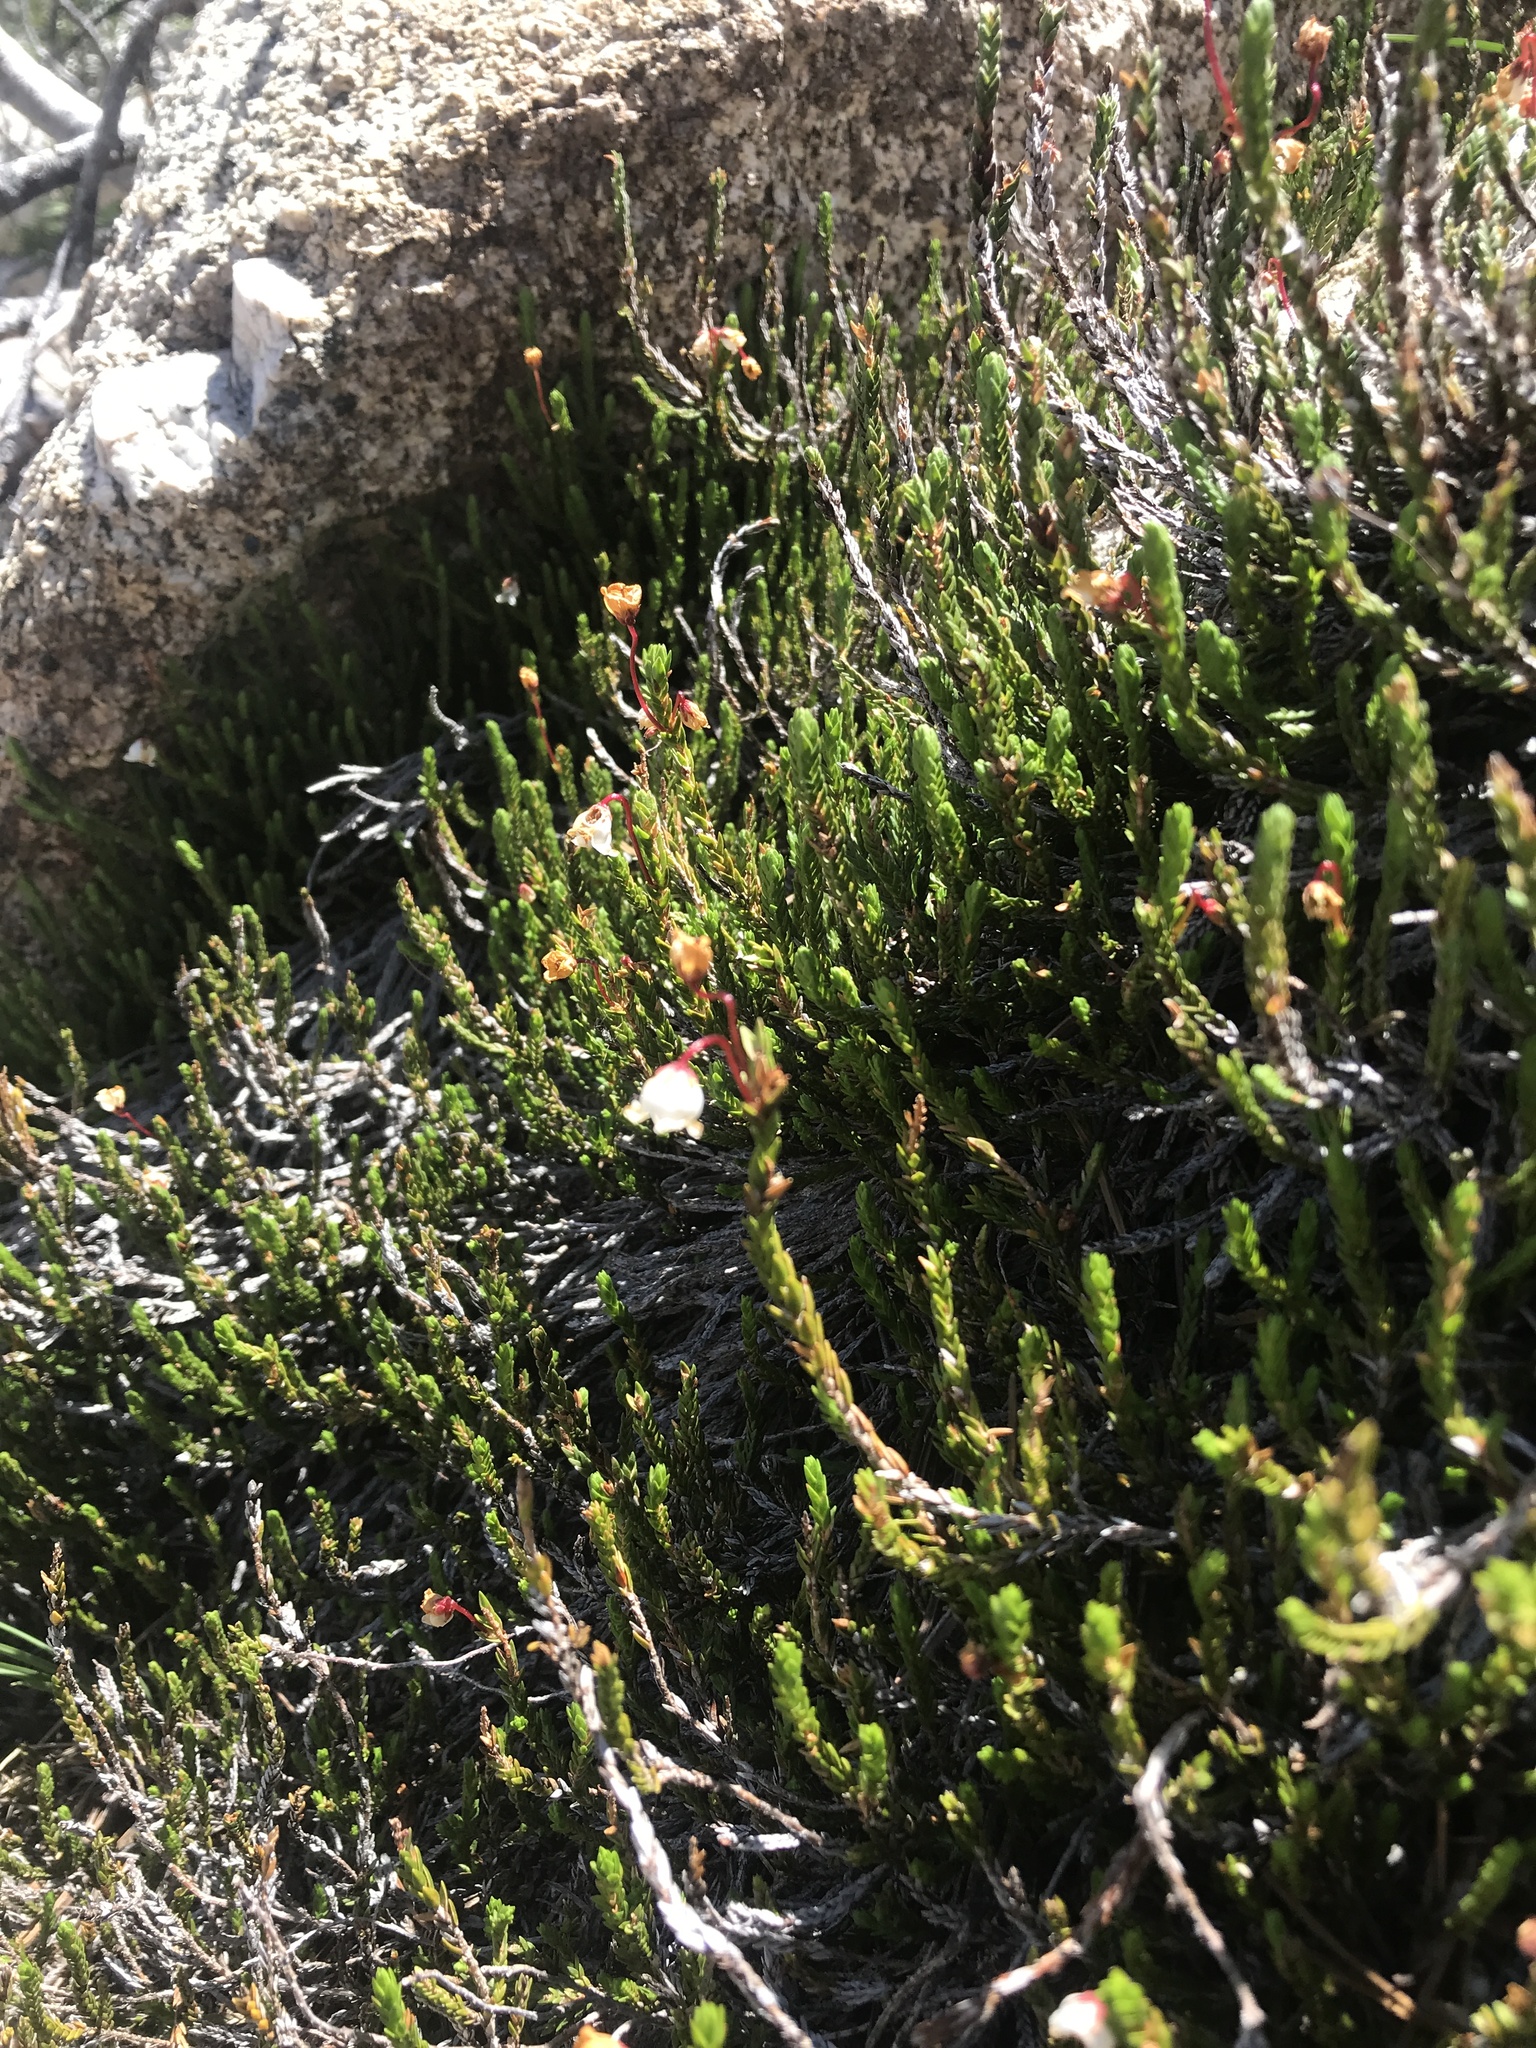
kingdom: Plantae
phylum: Tracheophyta
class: Magnoliopsida
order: Ericales
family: Ericaceae
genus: Cassiope
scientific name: Cassiope mertensiana
